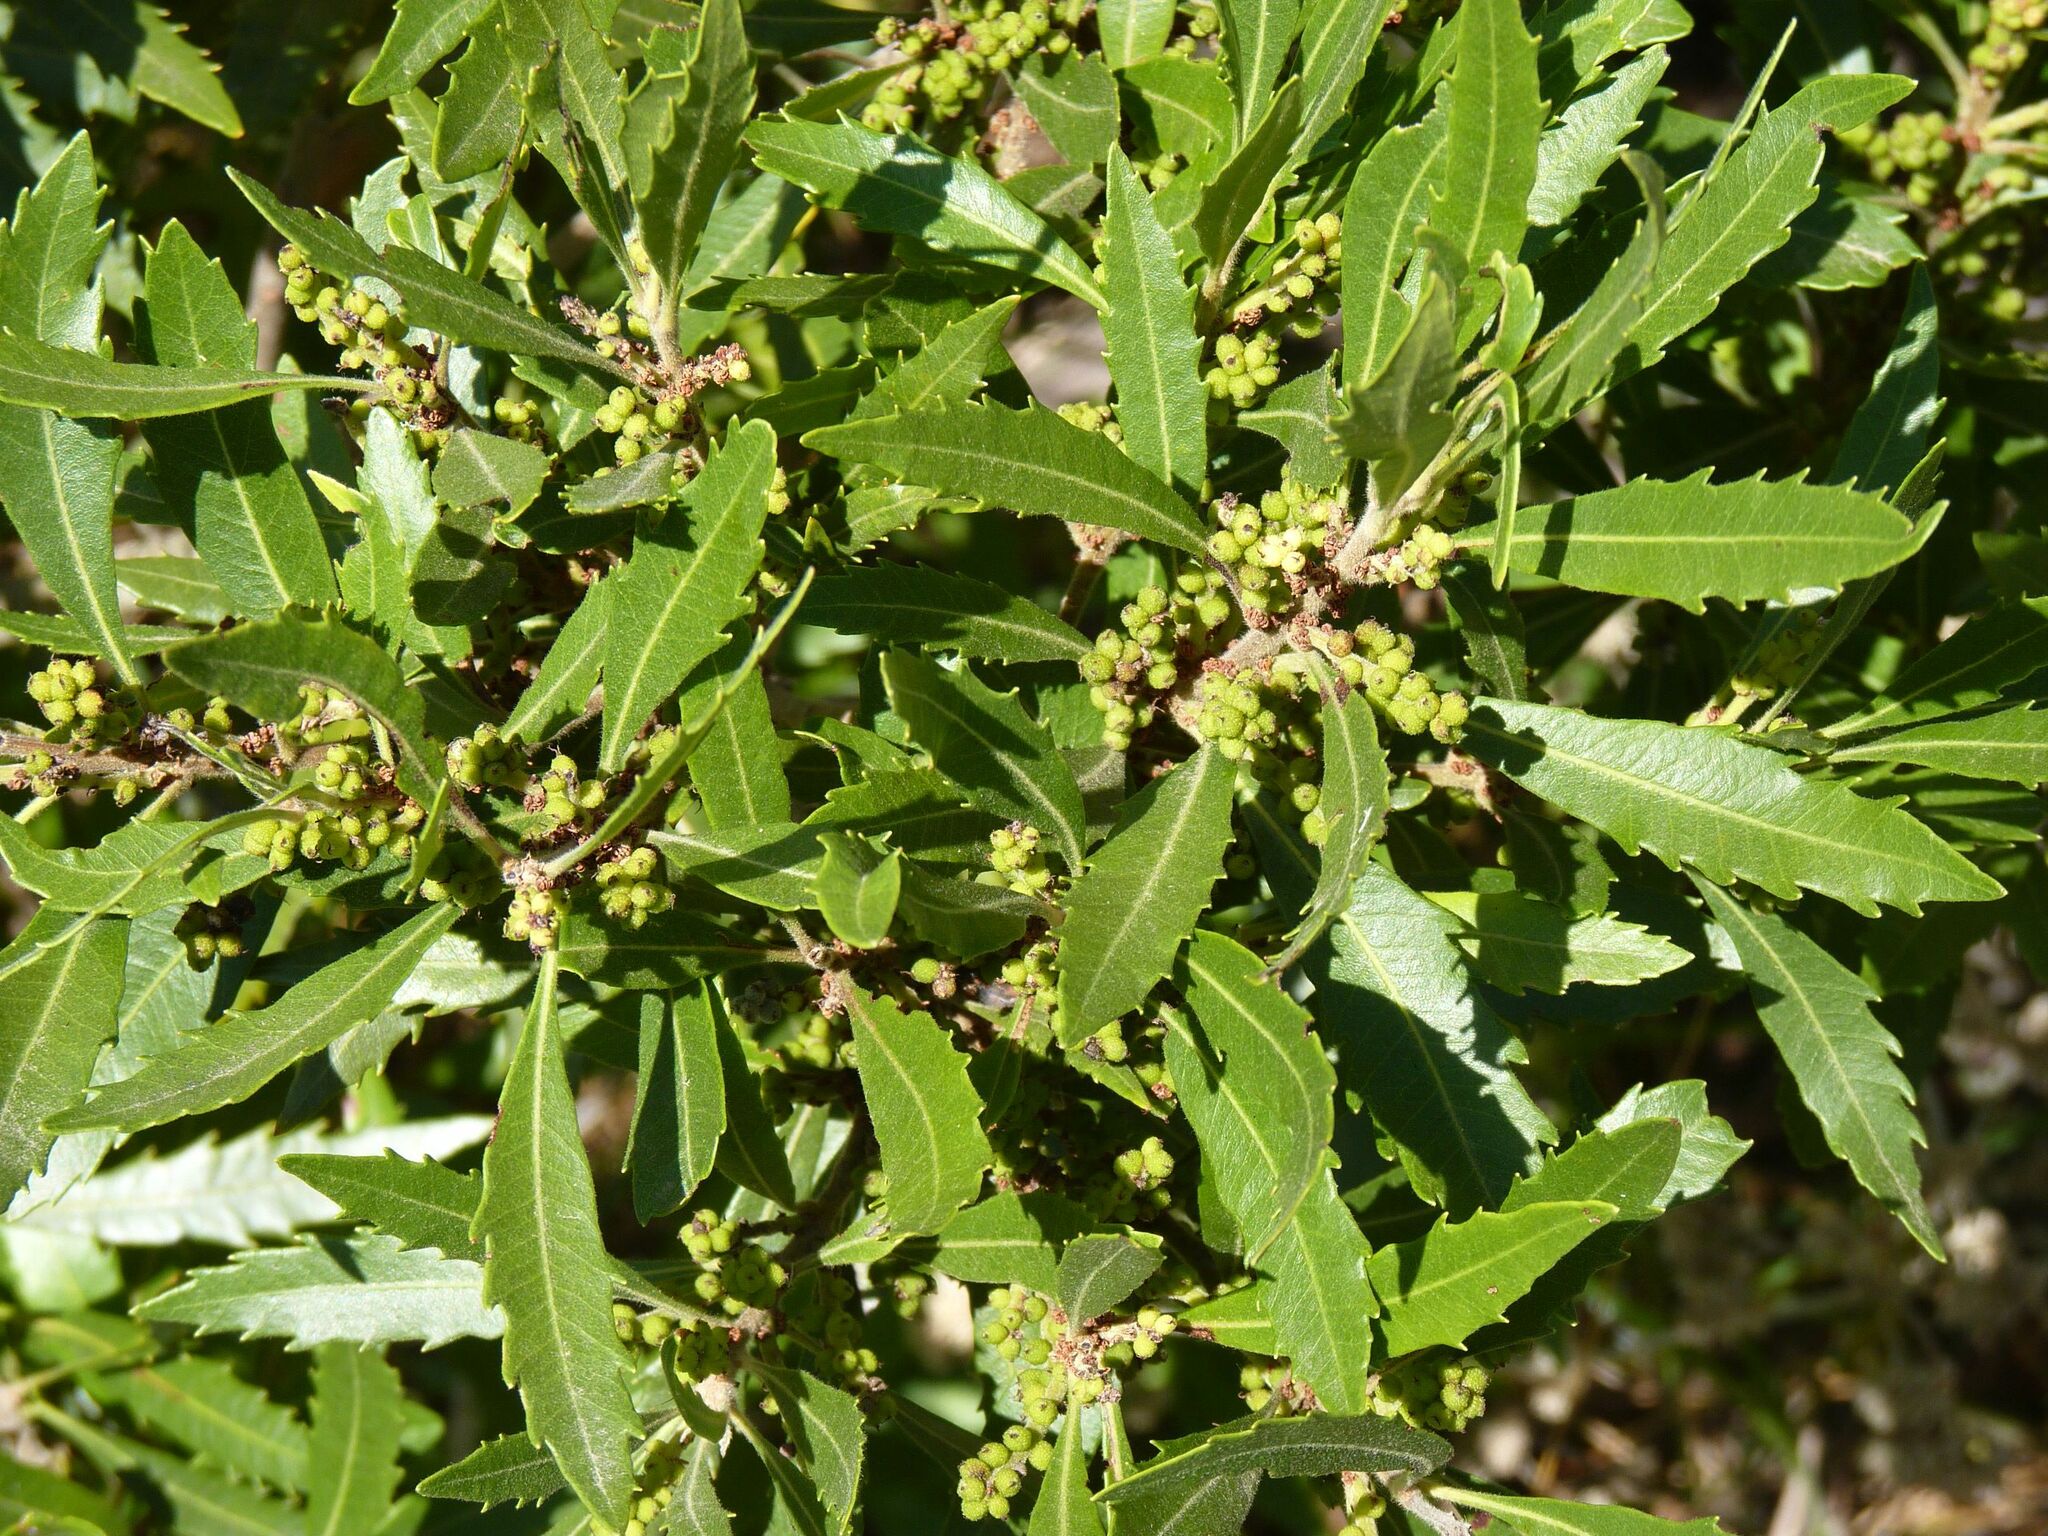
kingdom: Plantae
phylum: Tracheophyta
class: Magnoliopsida
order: Fagales
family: Myricaceae
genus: Morella
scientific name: Morella serrata
